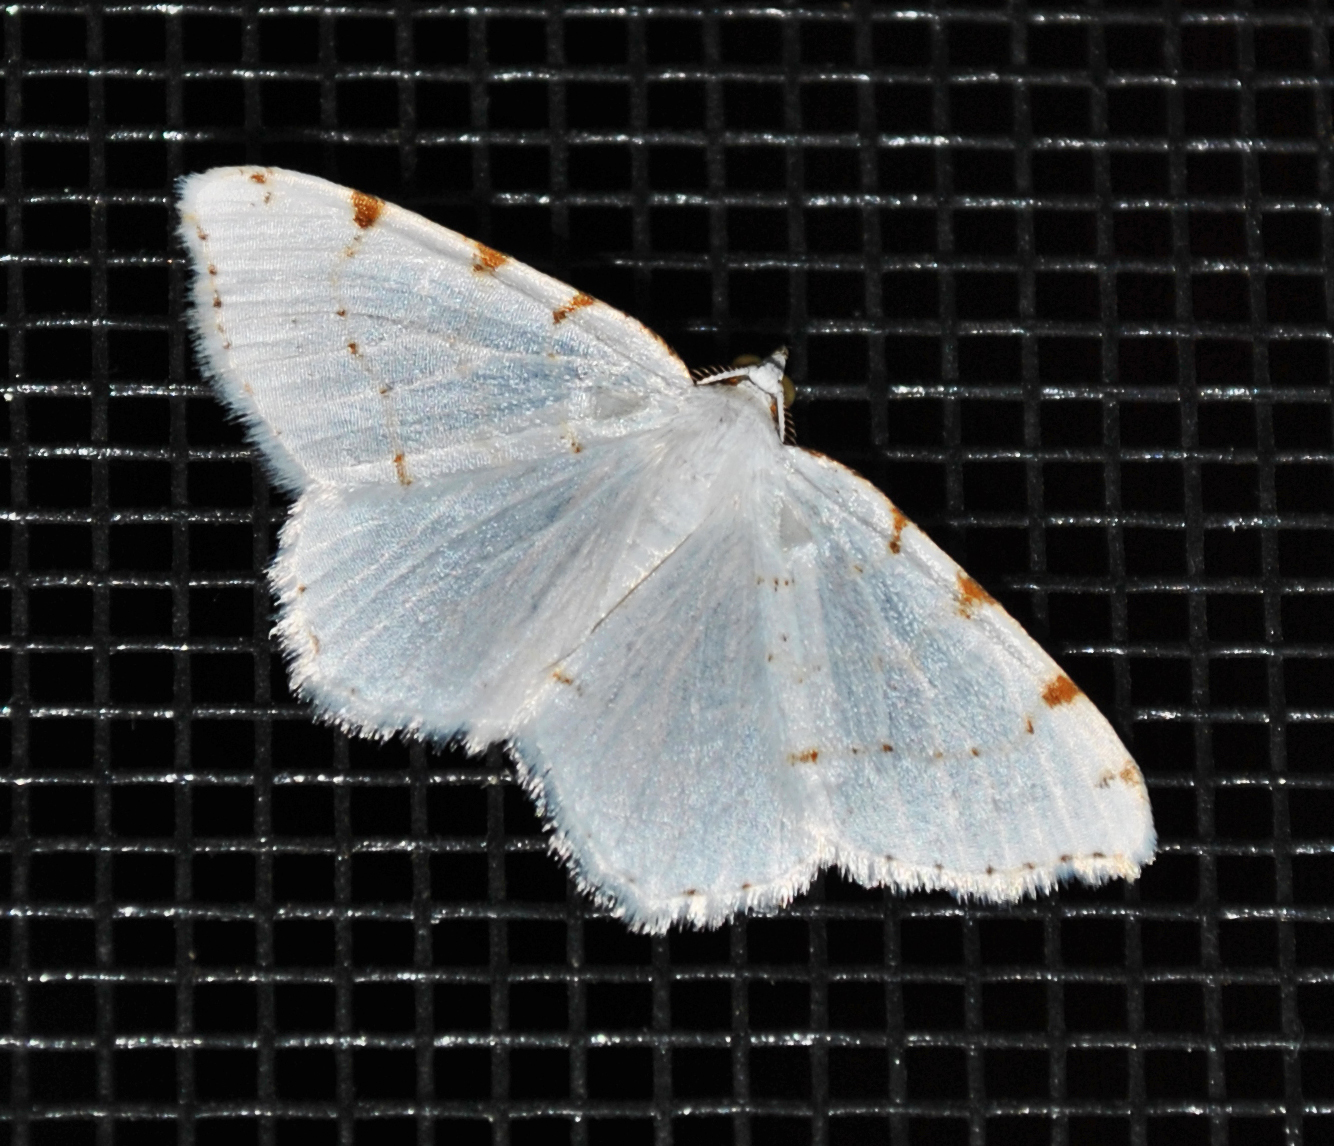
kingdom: Animalia
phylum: Arthropoda
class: Insecta
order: Lepidoptera
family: Geometridae
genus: Macaria
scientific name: Macaria pustularia
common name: Lesser maple spanworm moth
